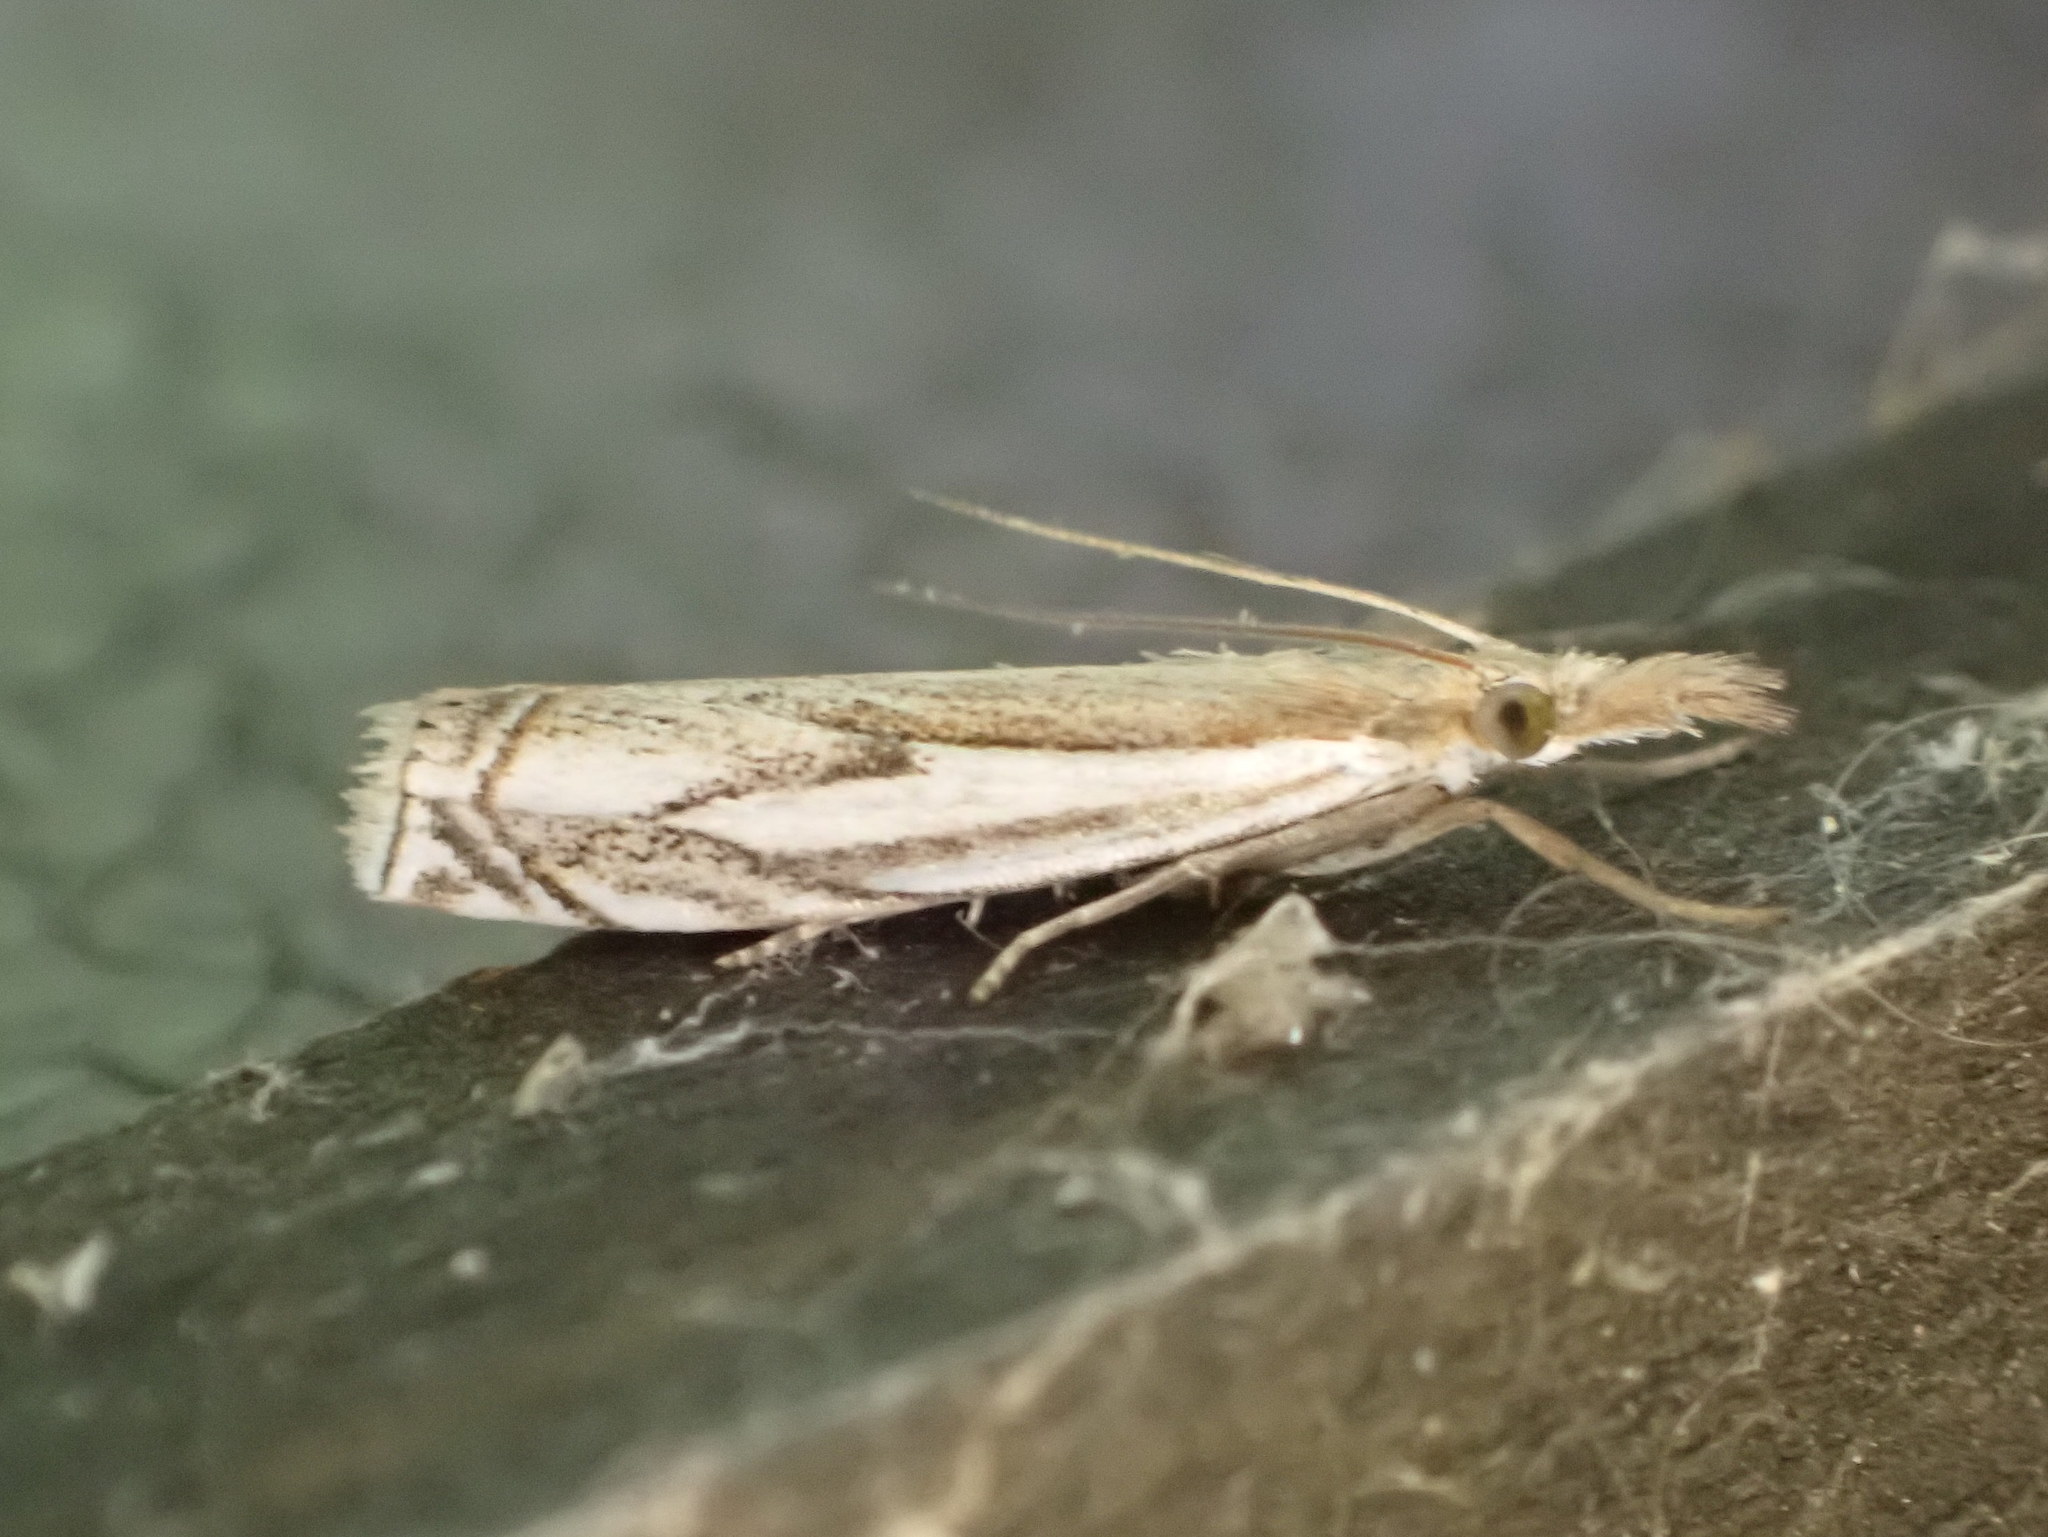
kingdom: Animalia
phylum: Arthropoda
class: Insecta
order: Lepidoptera
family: Crambidae
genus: Crambus
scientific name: Crambus saltuellus
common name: Pasture grass-veneer
